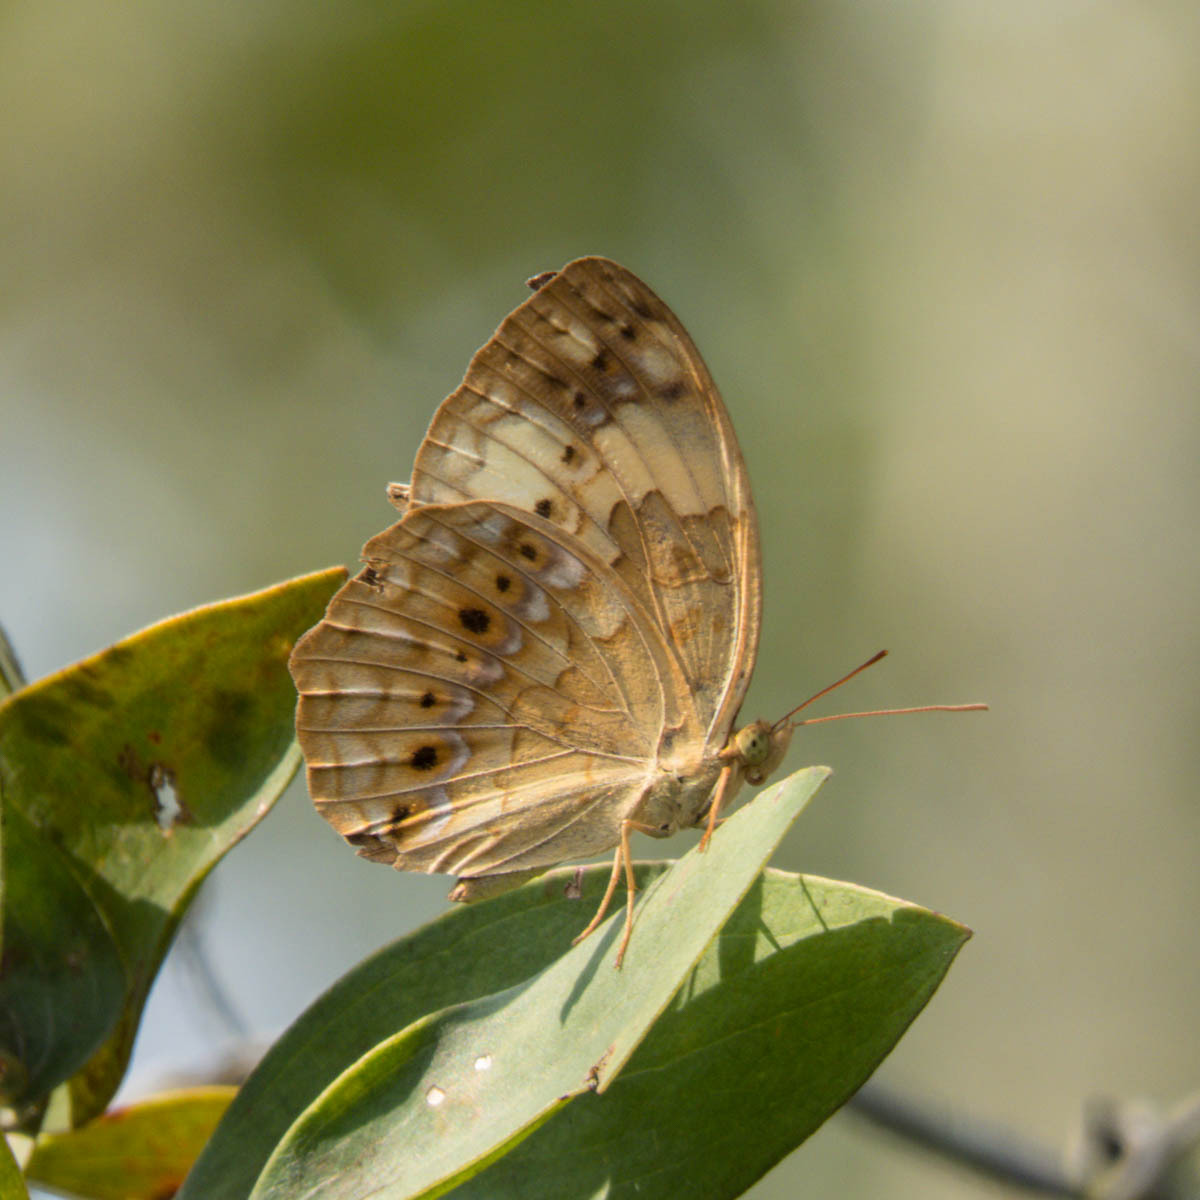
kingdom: Animalia
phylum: Arthropoda
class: Insecta
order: Lepidoptera
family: Nymphalidae
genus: Cupha
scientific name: Cupha erymanthis
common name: Rustic
